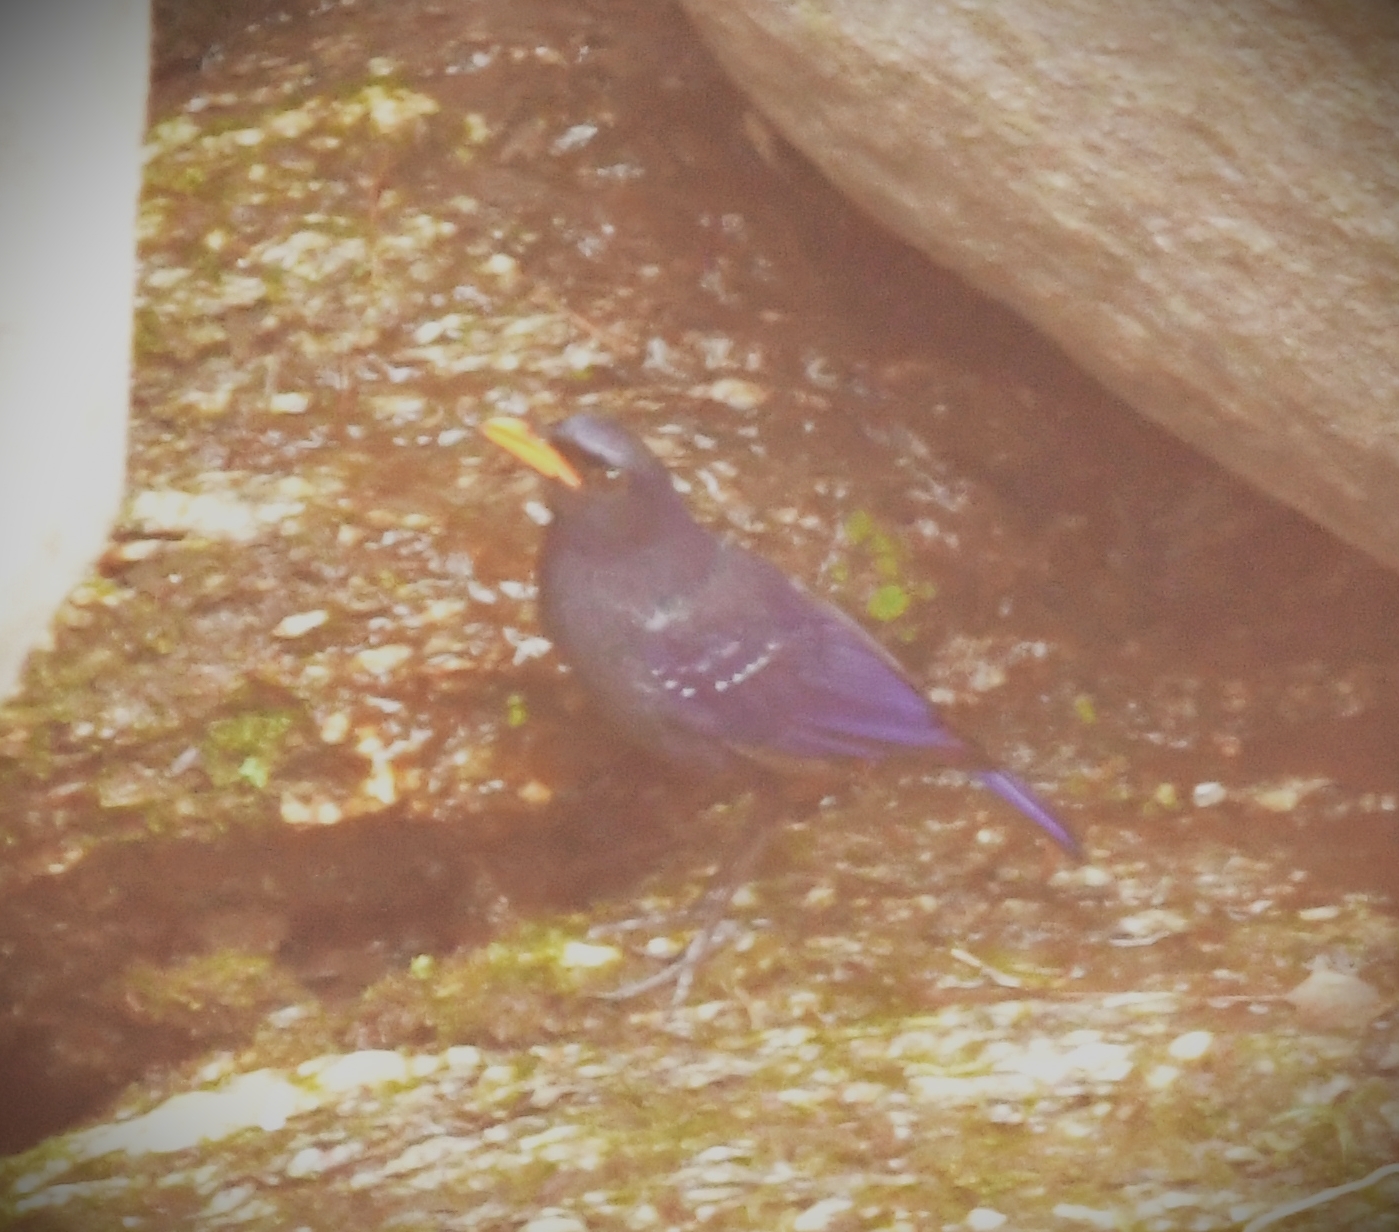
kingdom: Animalia
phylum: Chordata
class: Aves
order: Passeriformes
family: Muscicapidae
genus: Myophonus
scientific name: Myophonus caeruleus
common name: Blue whistling-thrush
